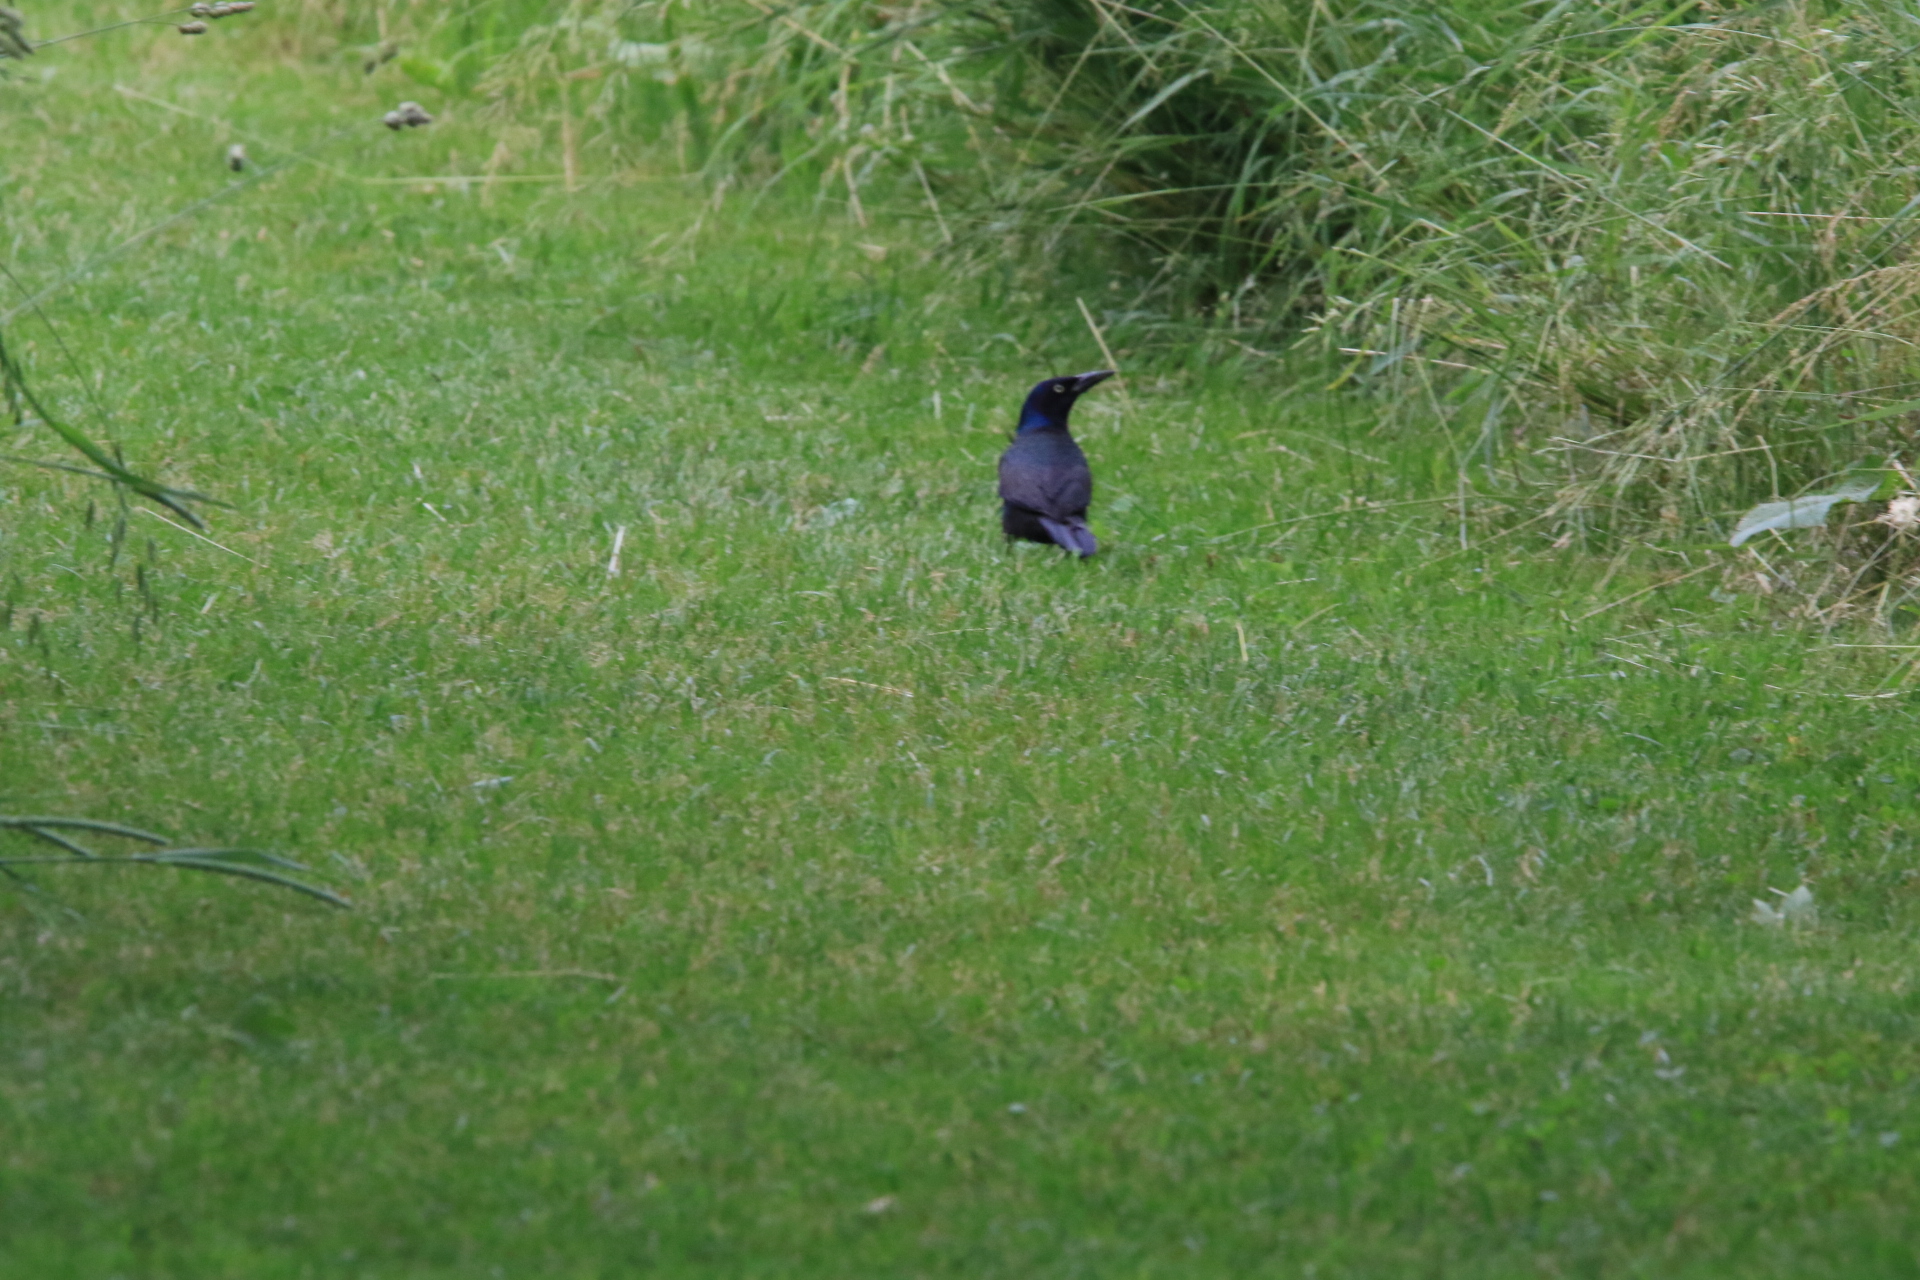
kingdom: Animalia
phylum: Chordata
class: Aves
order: Passeriformes
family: Icteridae
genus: Quiscalus
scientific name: Quiscalus quiscula
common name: Common grackle
